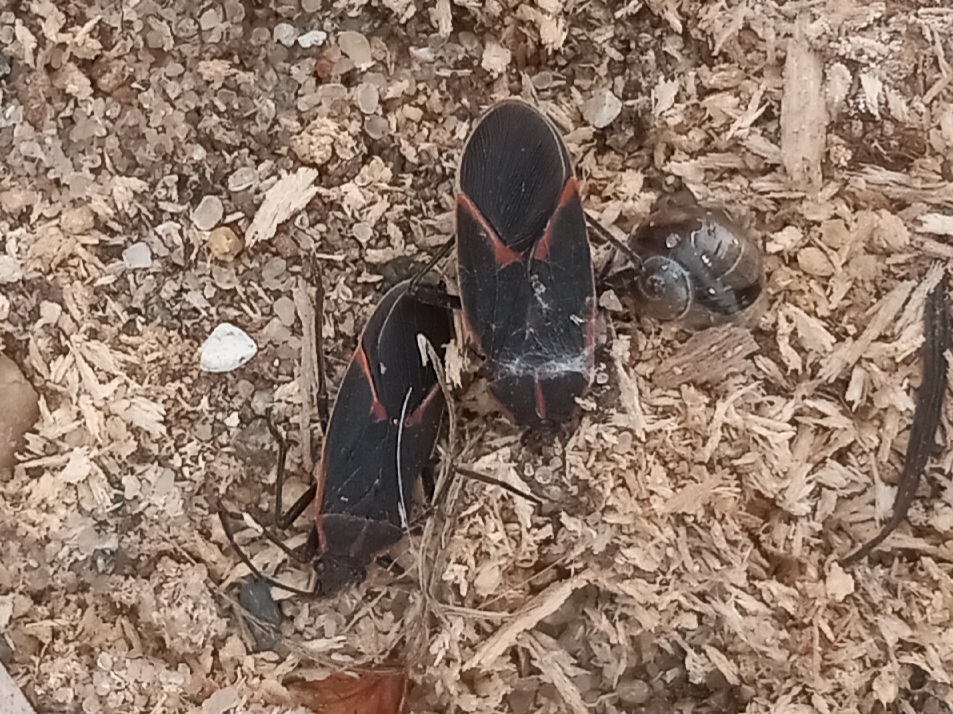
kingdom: Animalia
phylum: Arthropoda
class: Insecta
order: Hemiptera
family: Rhopalidae
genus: Boisea
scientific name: Boisea trivittata
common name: Boxelder bug
